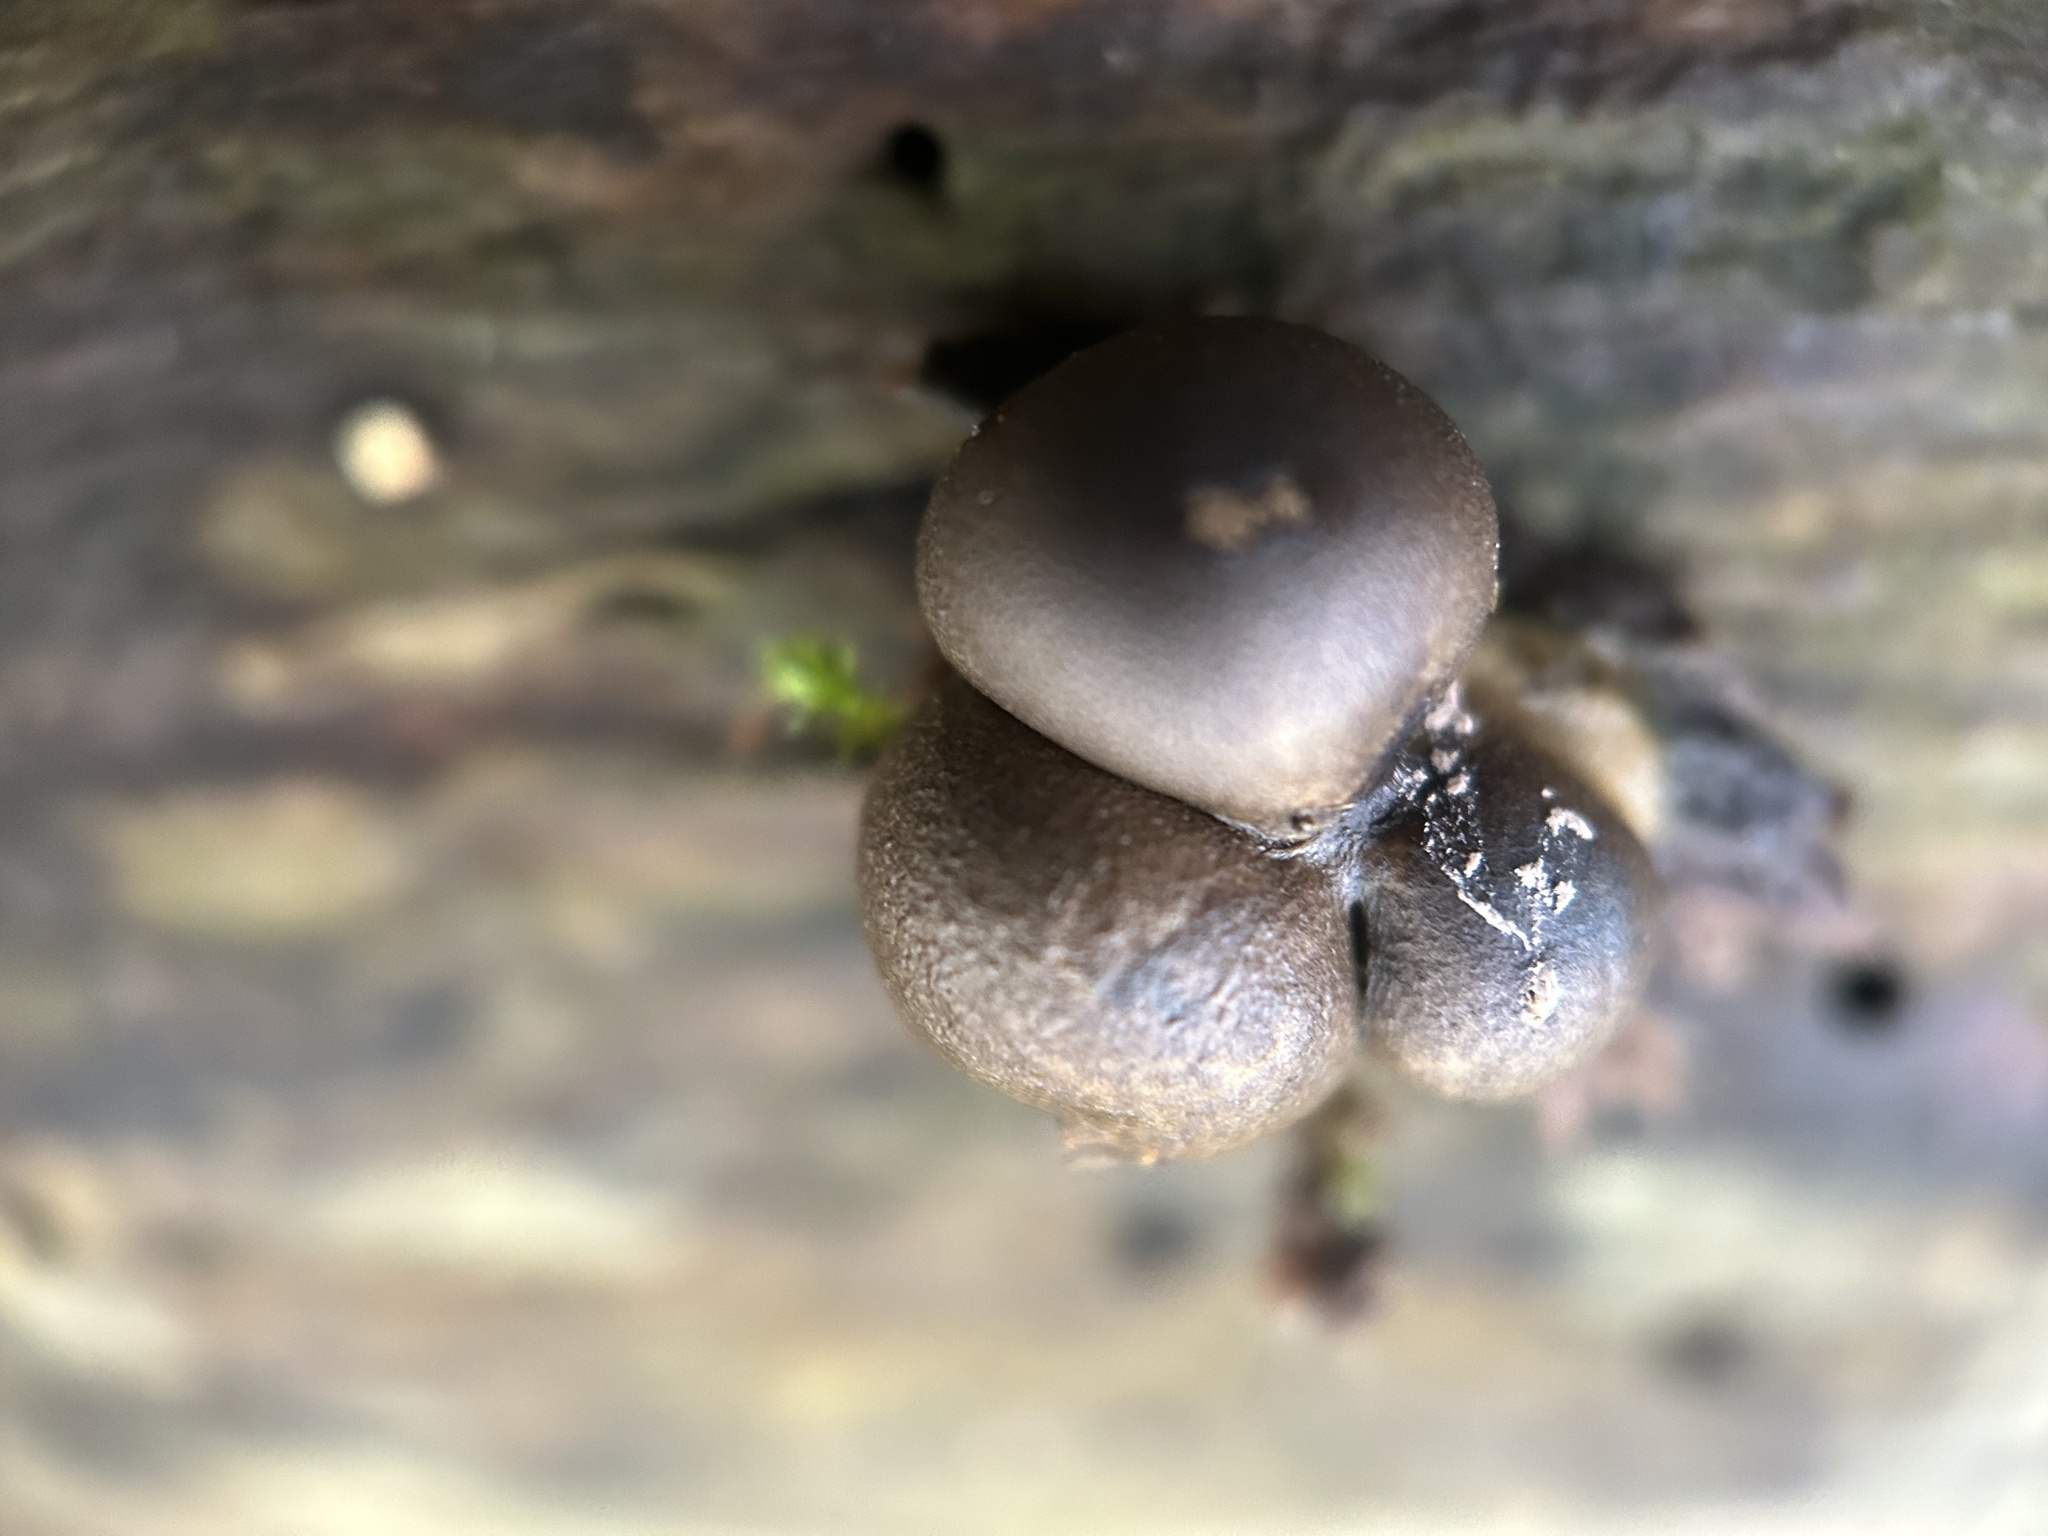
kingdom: Protozoa
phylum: Mycetozoa
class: Myxomycetes
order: Cribrariales
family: Tubiferaceae
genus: Lycogala
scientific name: Lycogala epidendrum
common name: Wolf's milk
